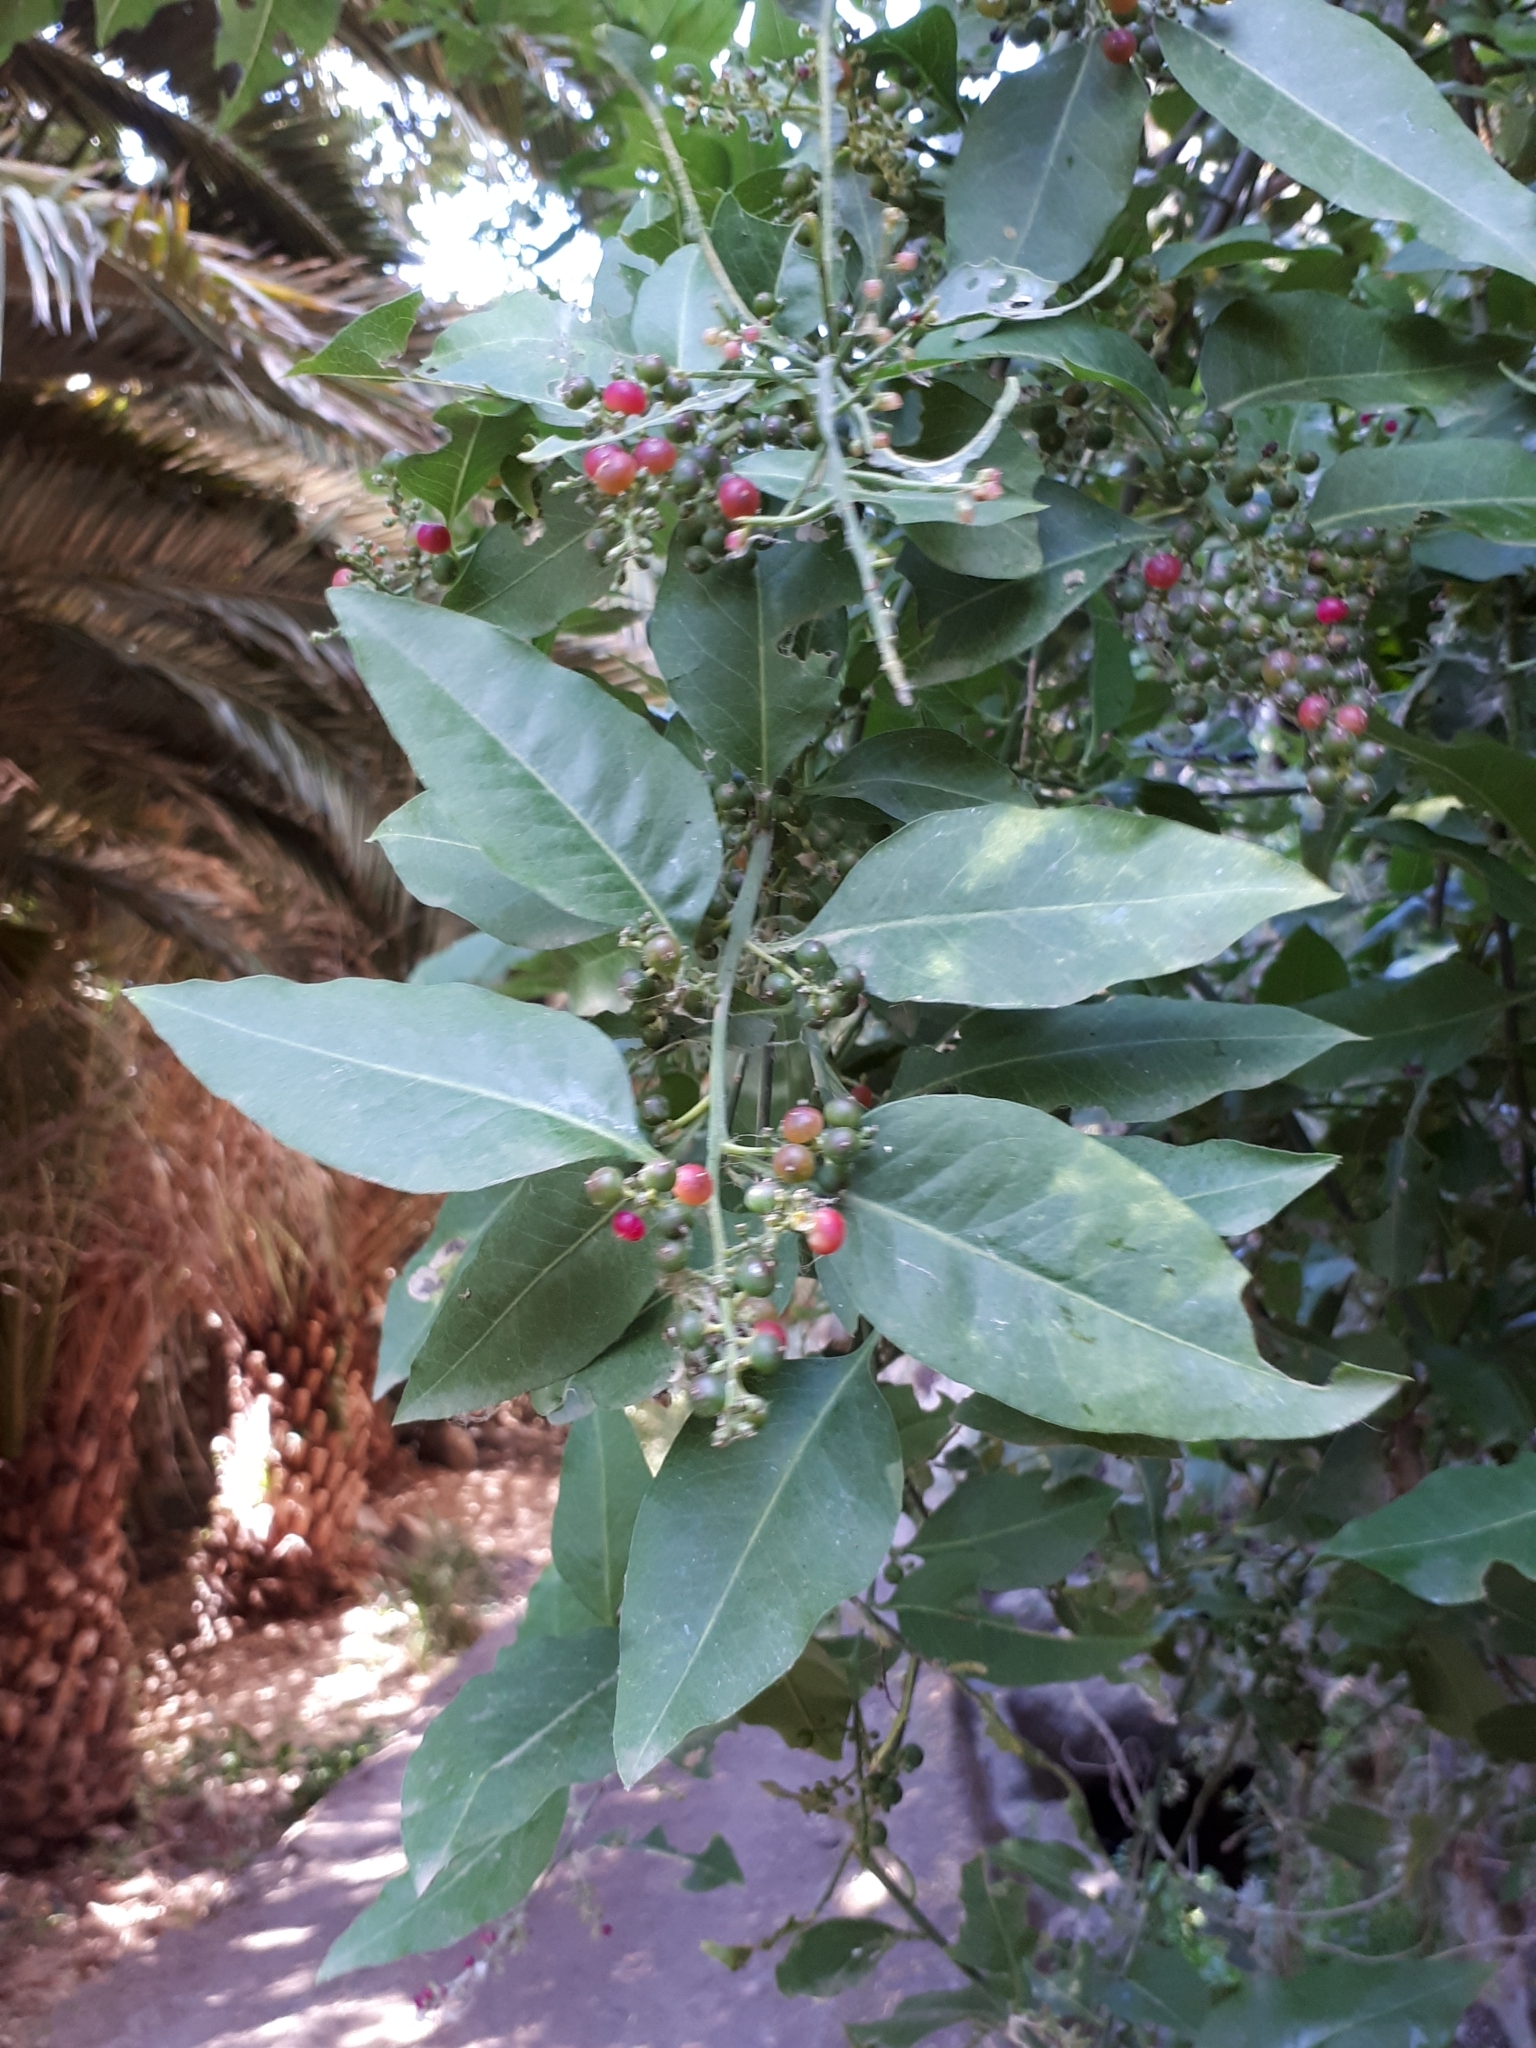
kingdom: Plantae
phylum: Tracheophyta
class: Magnoliopsida
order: Caryophyllales
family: Amaranthaceae
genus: Bosea
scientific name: Bosea yervamora
